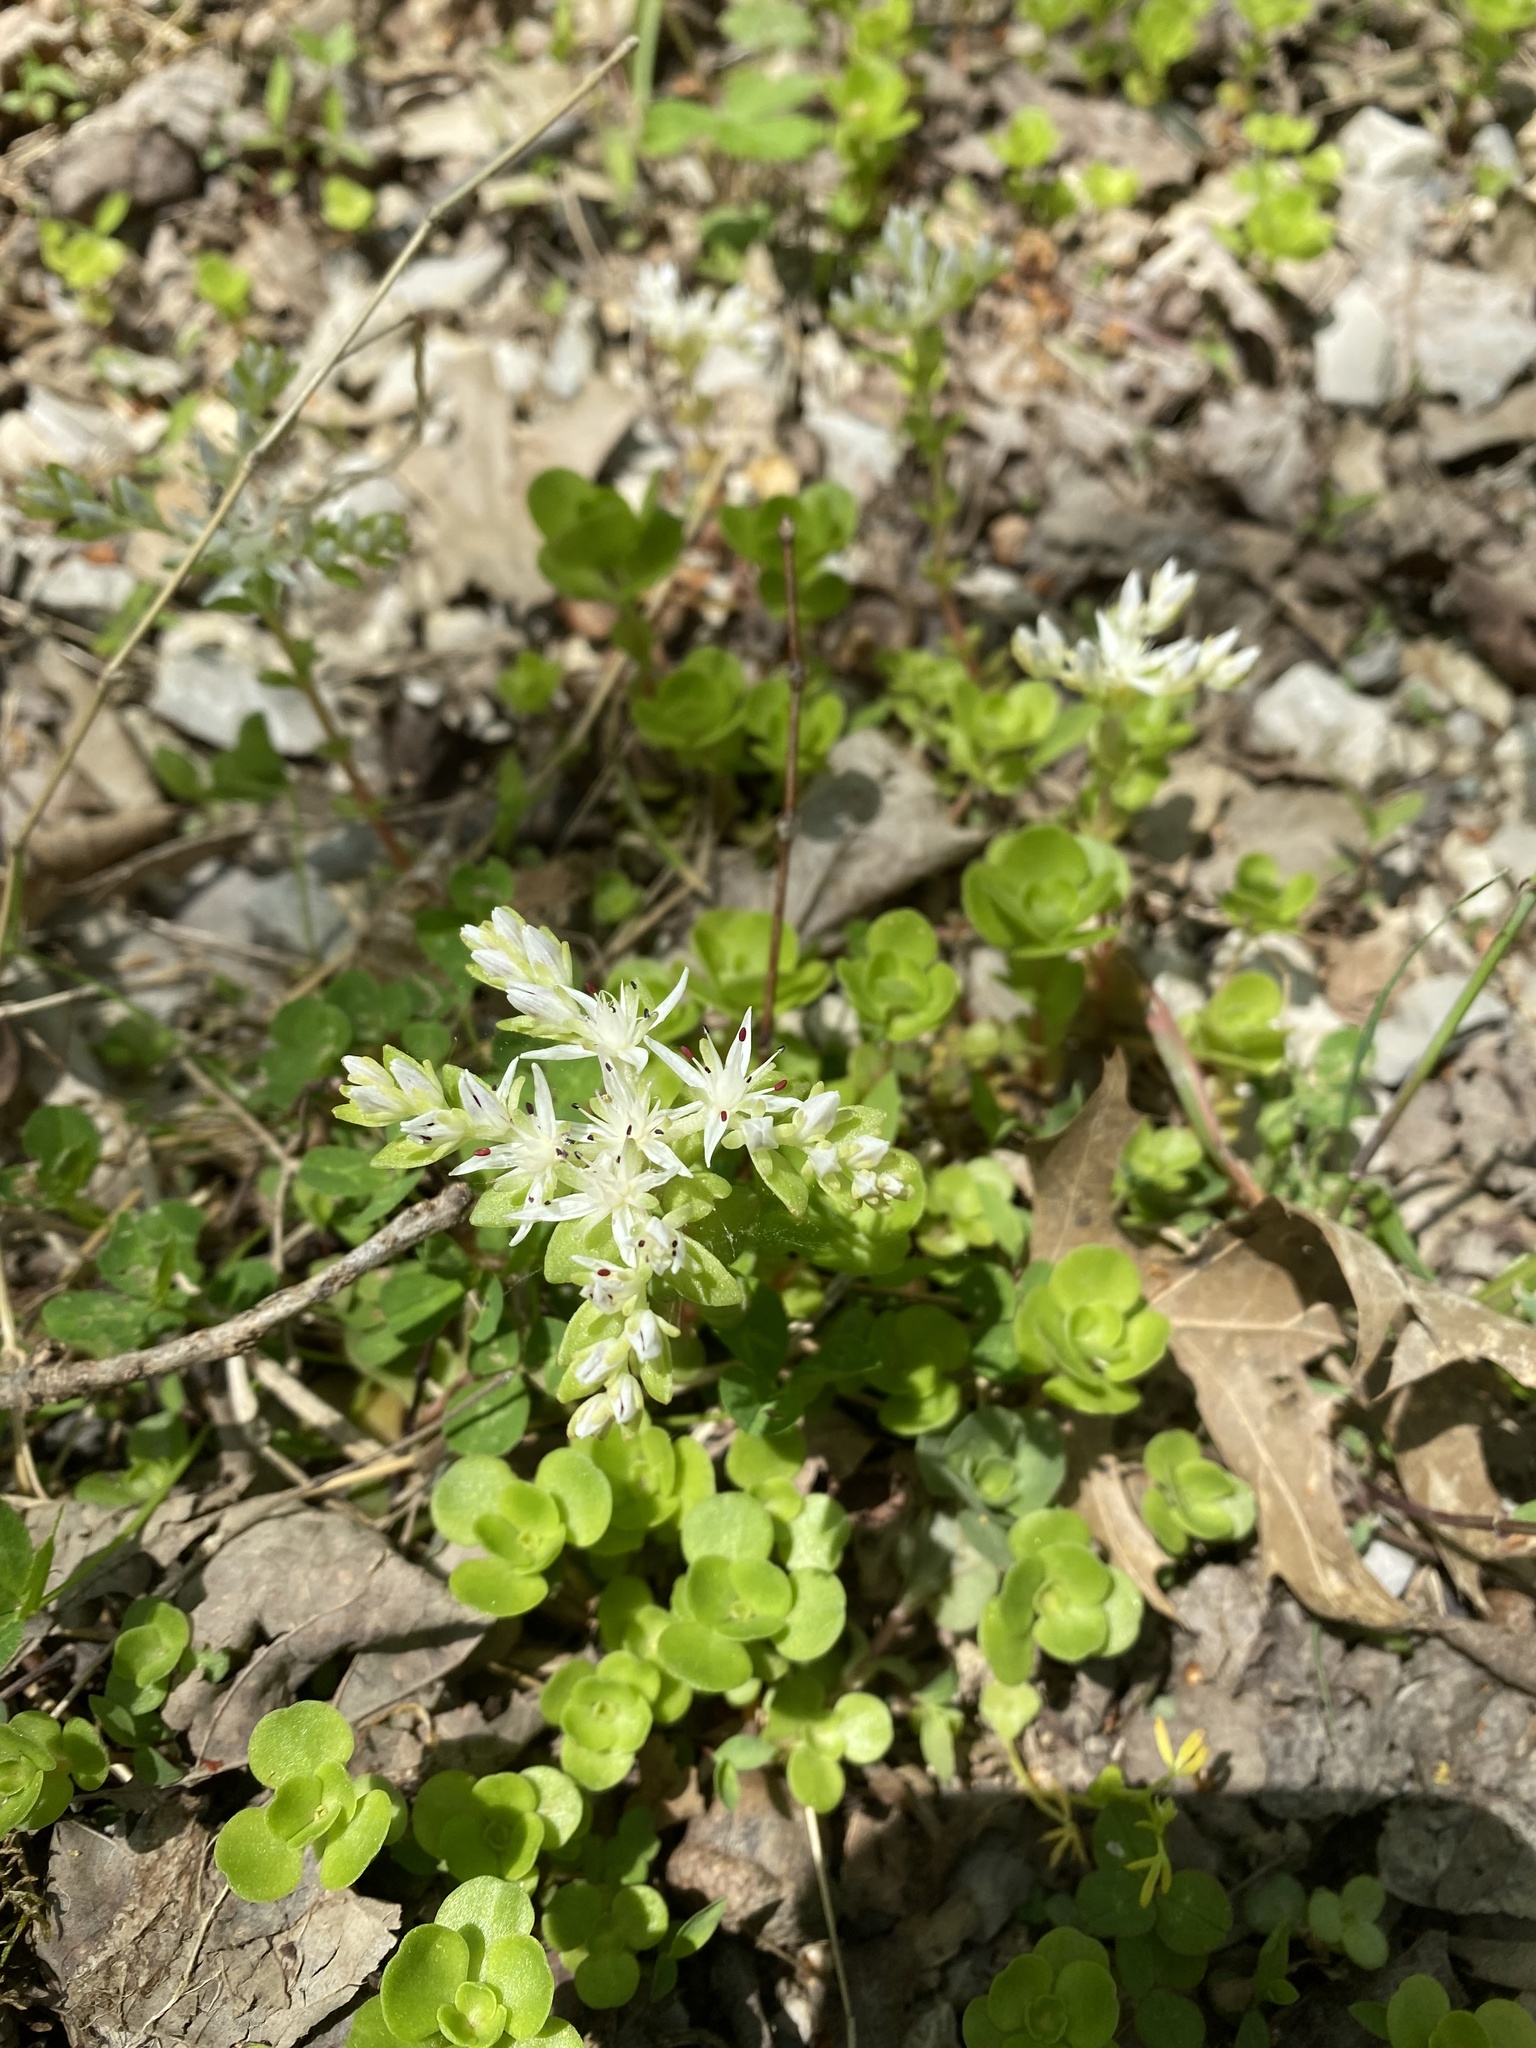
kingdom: Plantae
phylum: Tracheophyta
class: Magnoliopsida
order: Saxifragales
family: Crassulaceae
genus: Sedum
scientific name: Sedum ternatum
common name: Wild stonecrop
